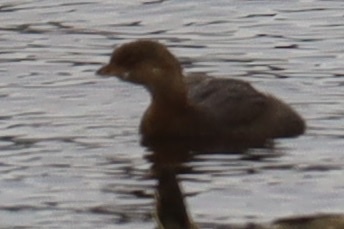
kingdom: Animalia
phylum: Chordata
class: Aves
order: Podicipediformes
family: Podicipedidae
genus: Podilymbus
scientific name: Podilymbus podiceps
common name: Pied-billed grebe
